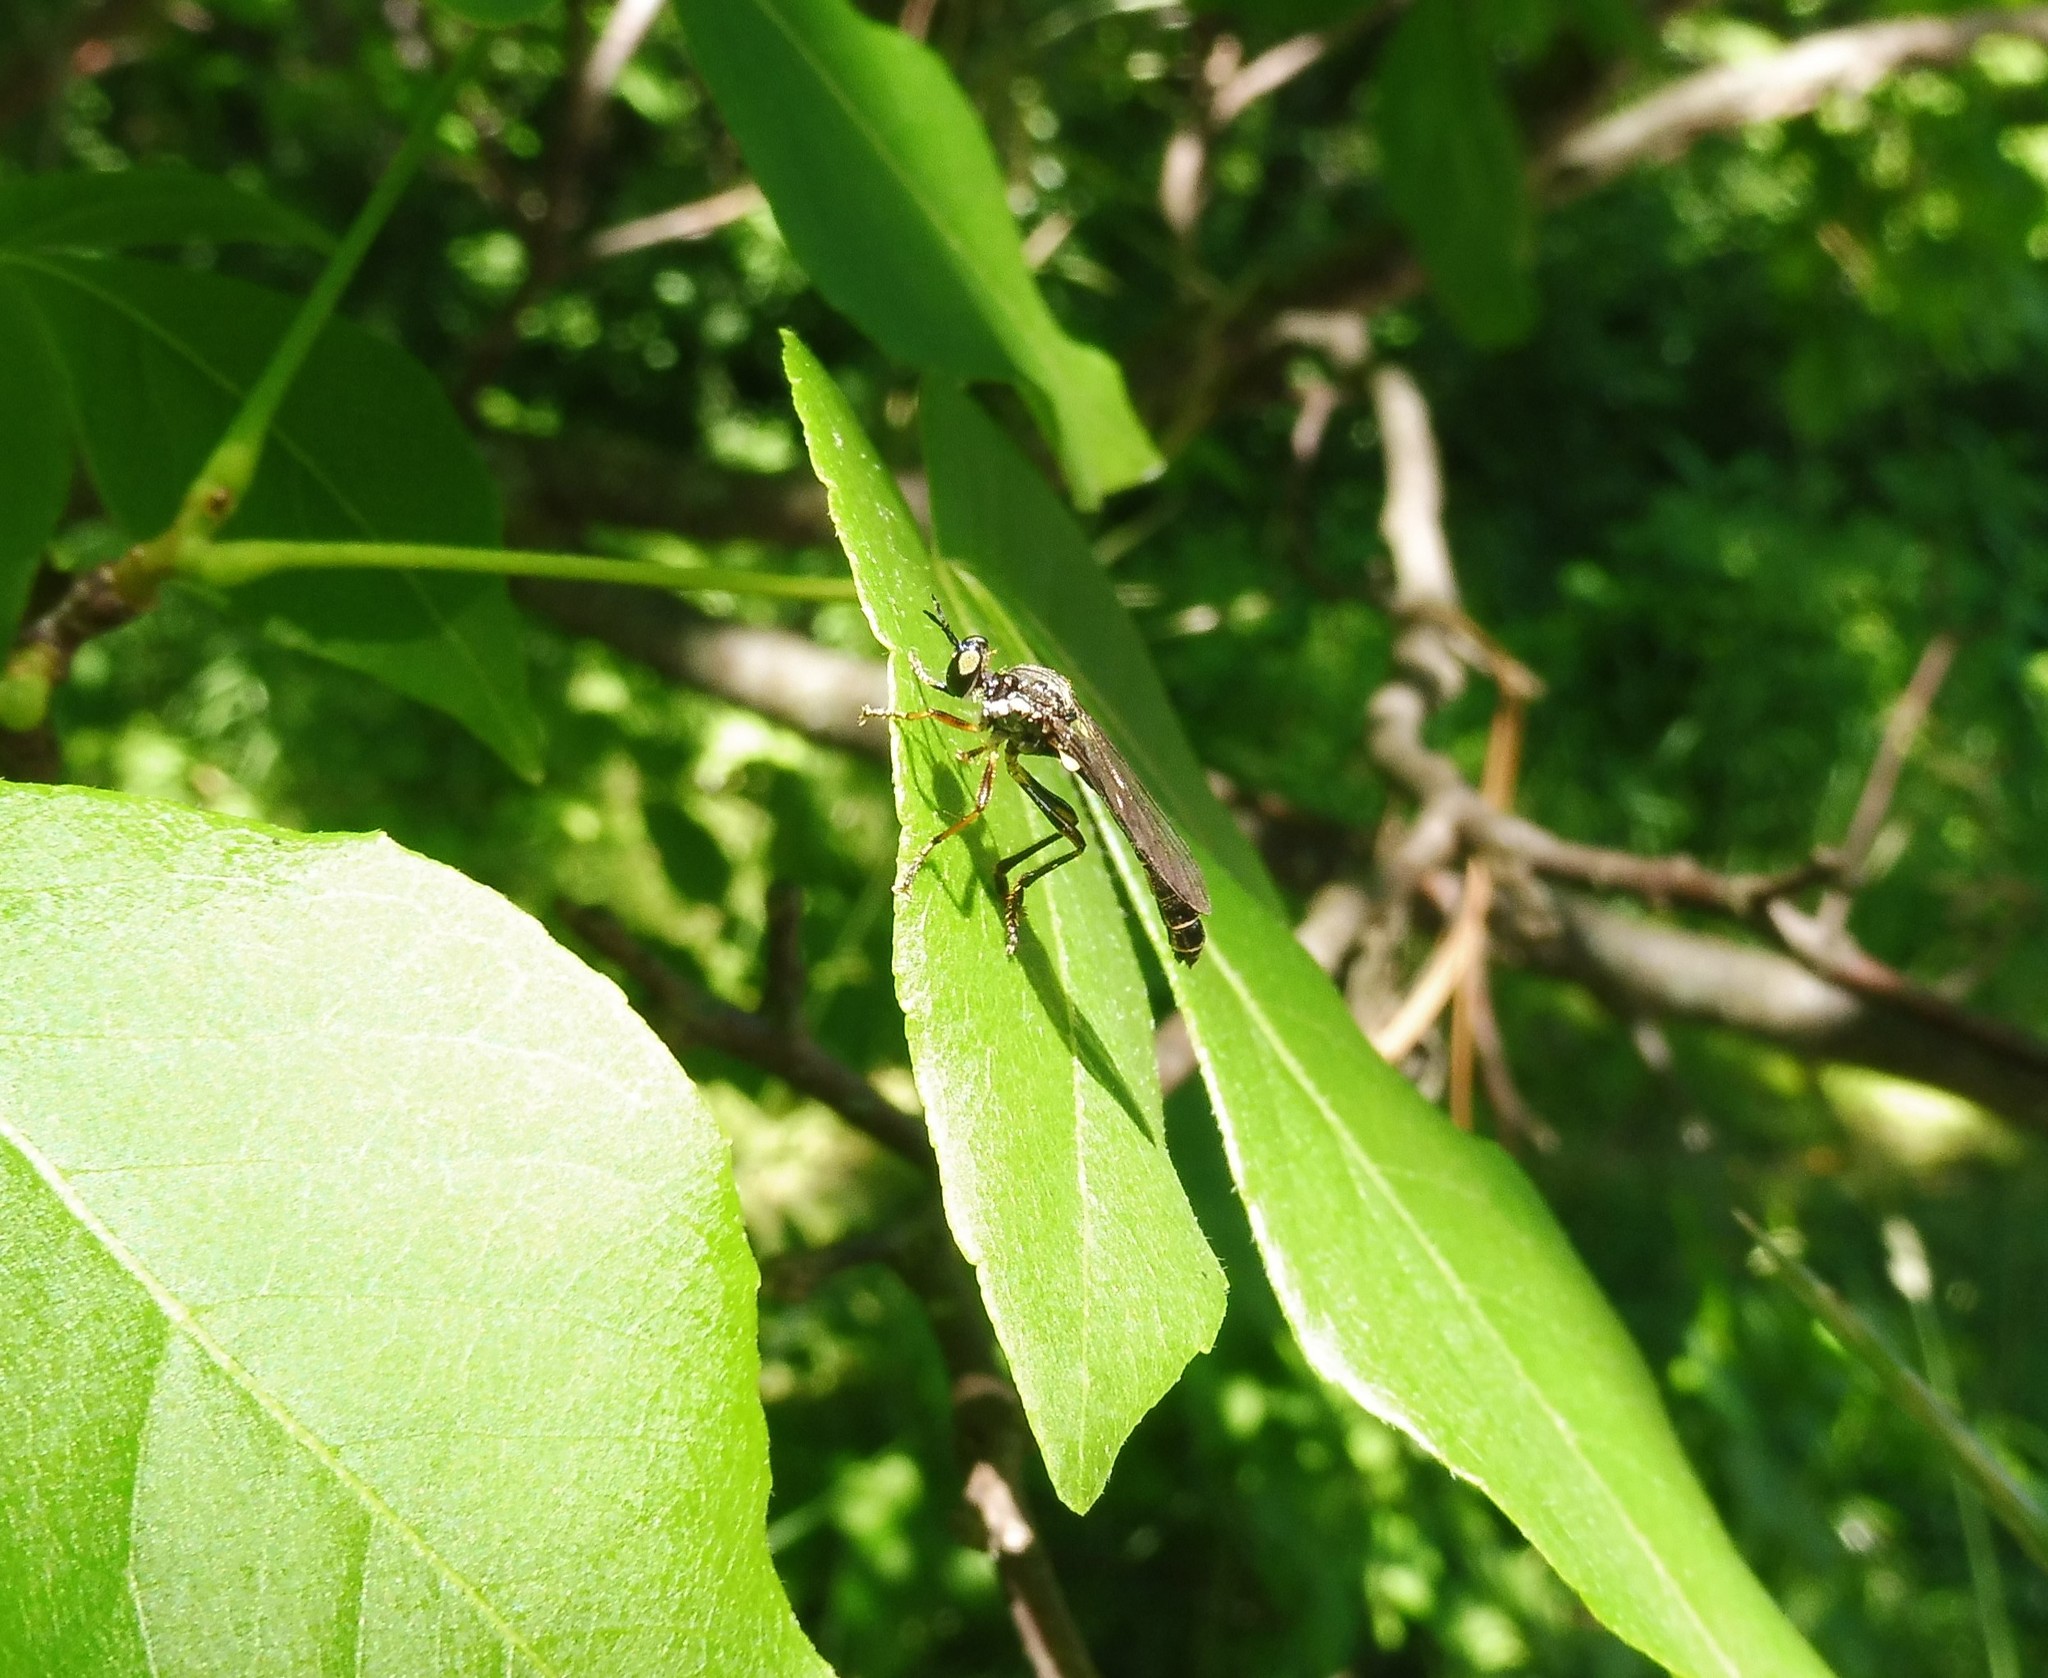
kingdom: Animalia
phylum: Arthropoda
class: Insecta
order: Diptera
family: Asilidae
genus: Dioctria
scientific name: Dioctria hyalipennis
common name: Stripe-legged robberfly
